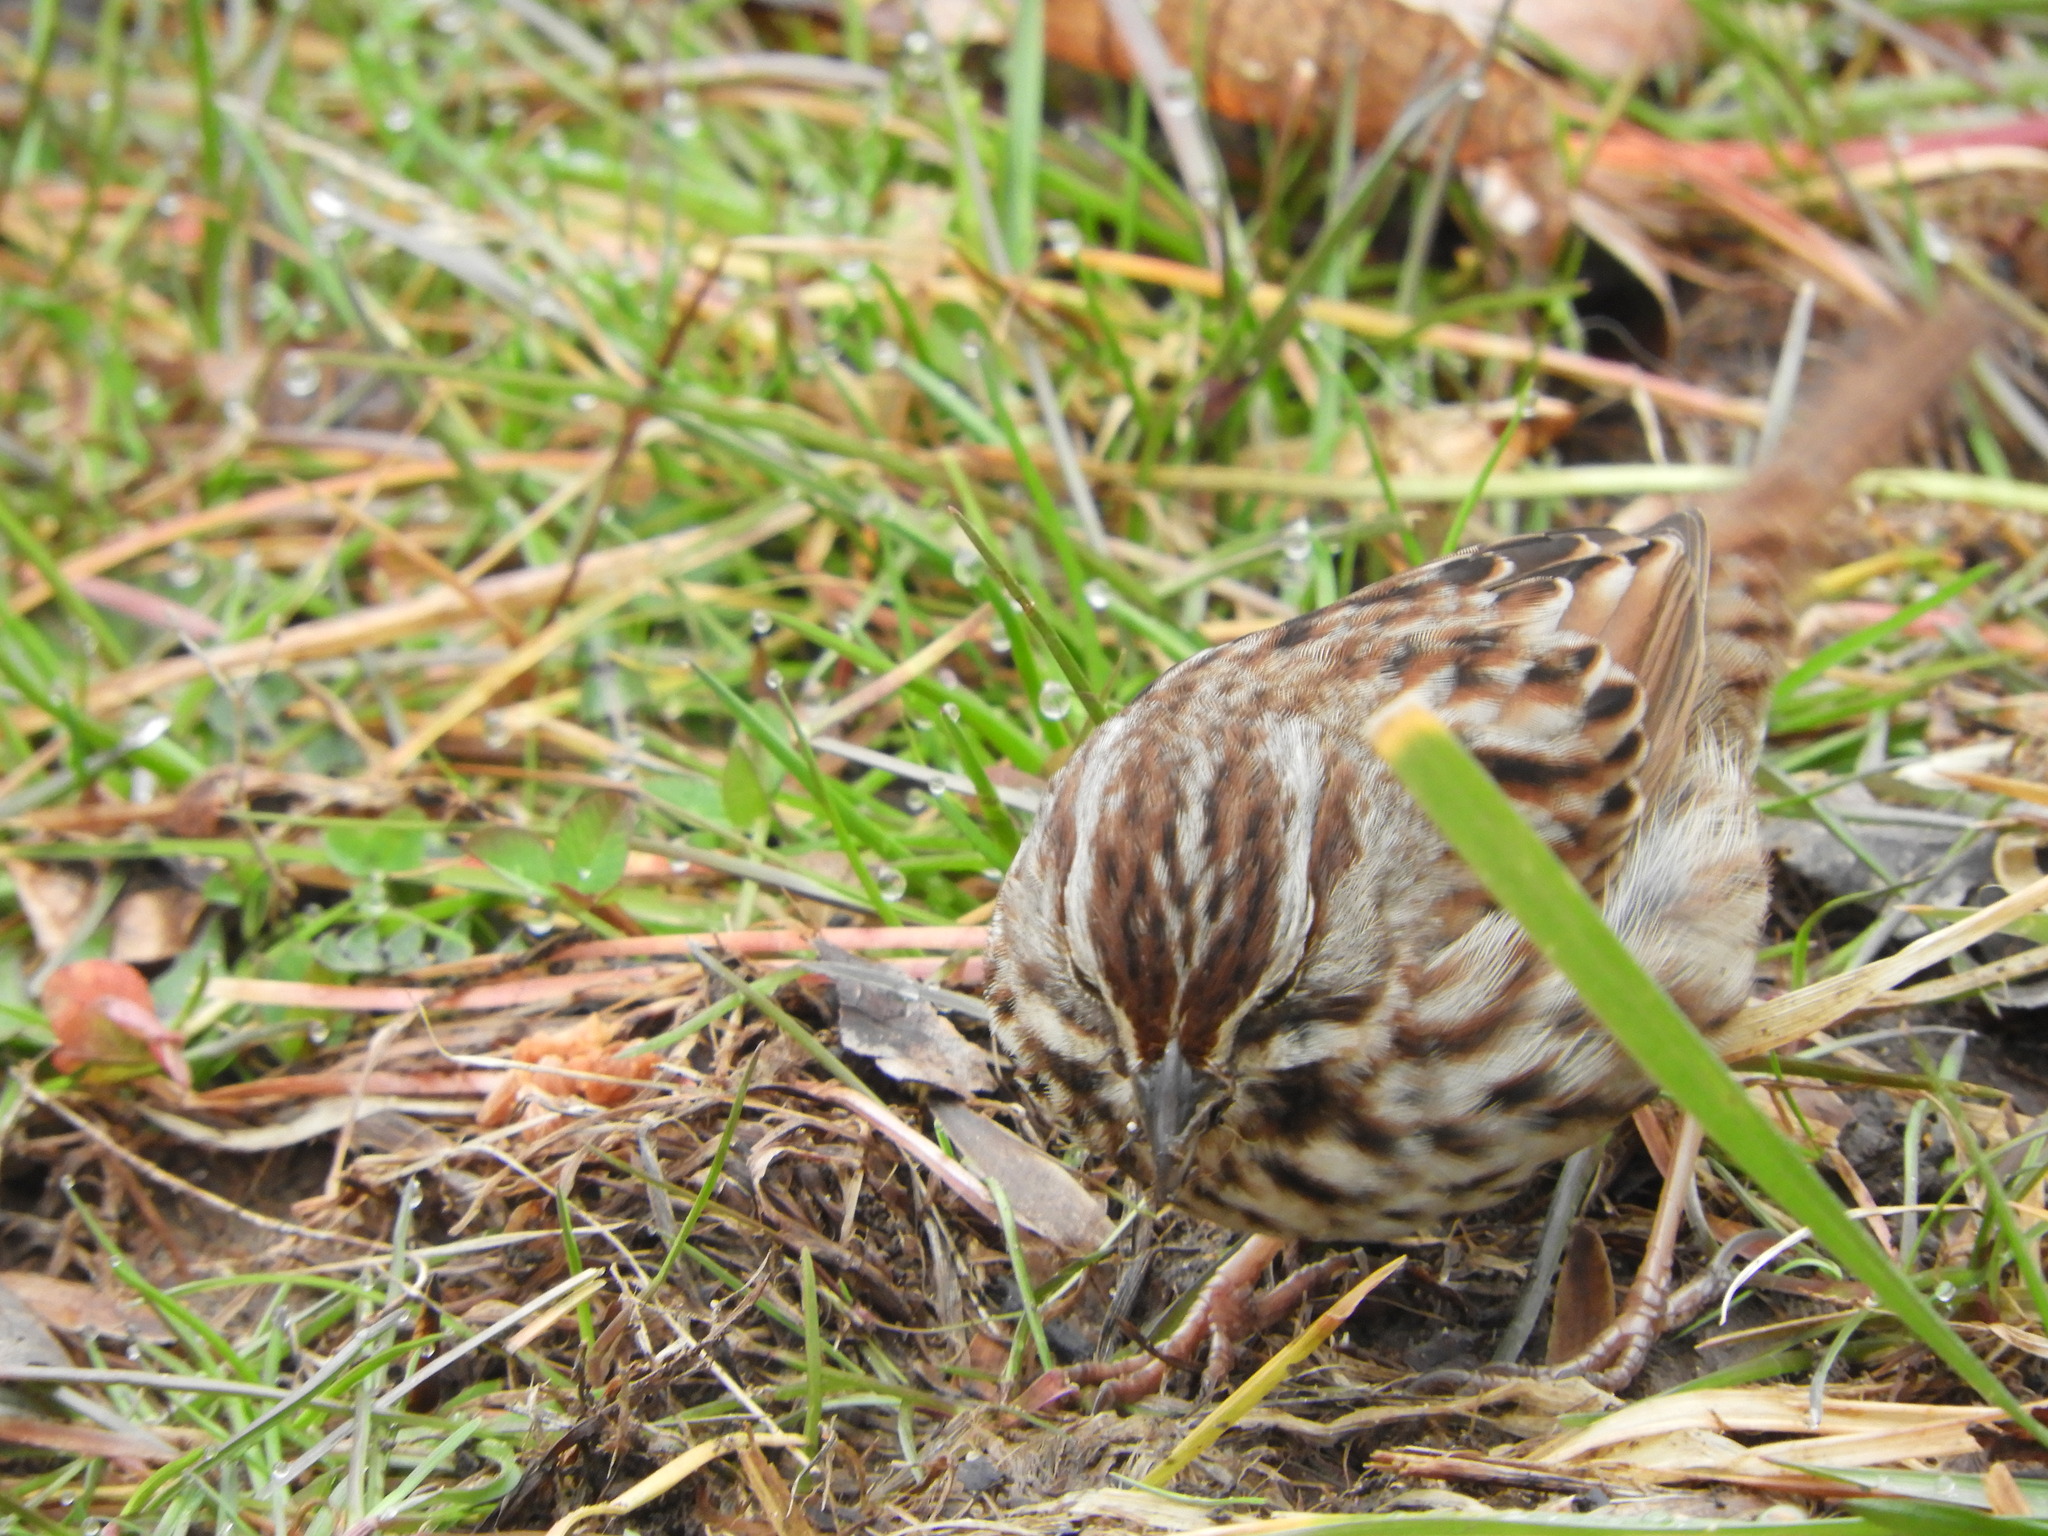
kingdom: Animalia
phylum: Chordata
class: Aves
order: Passeriformes
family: Passerellidae
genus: Melospiza
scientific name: Melospiza melodia
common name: Song sparrow
